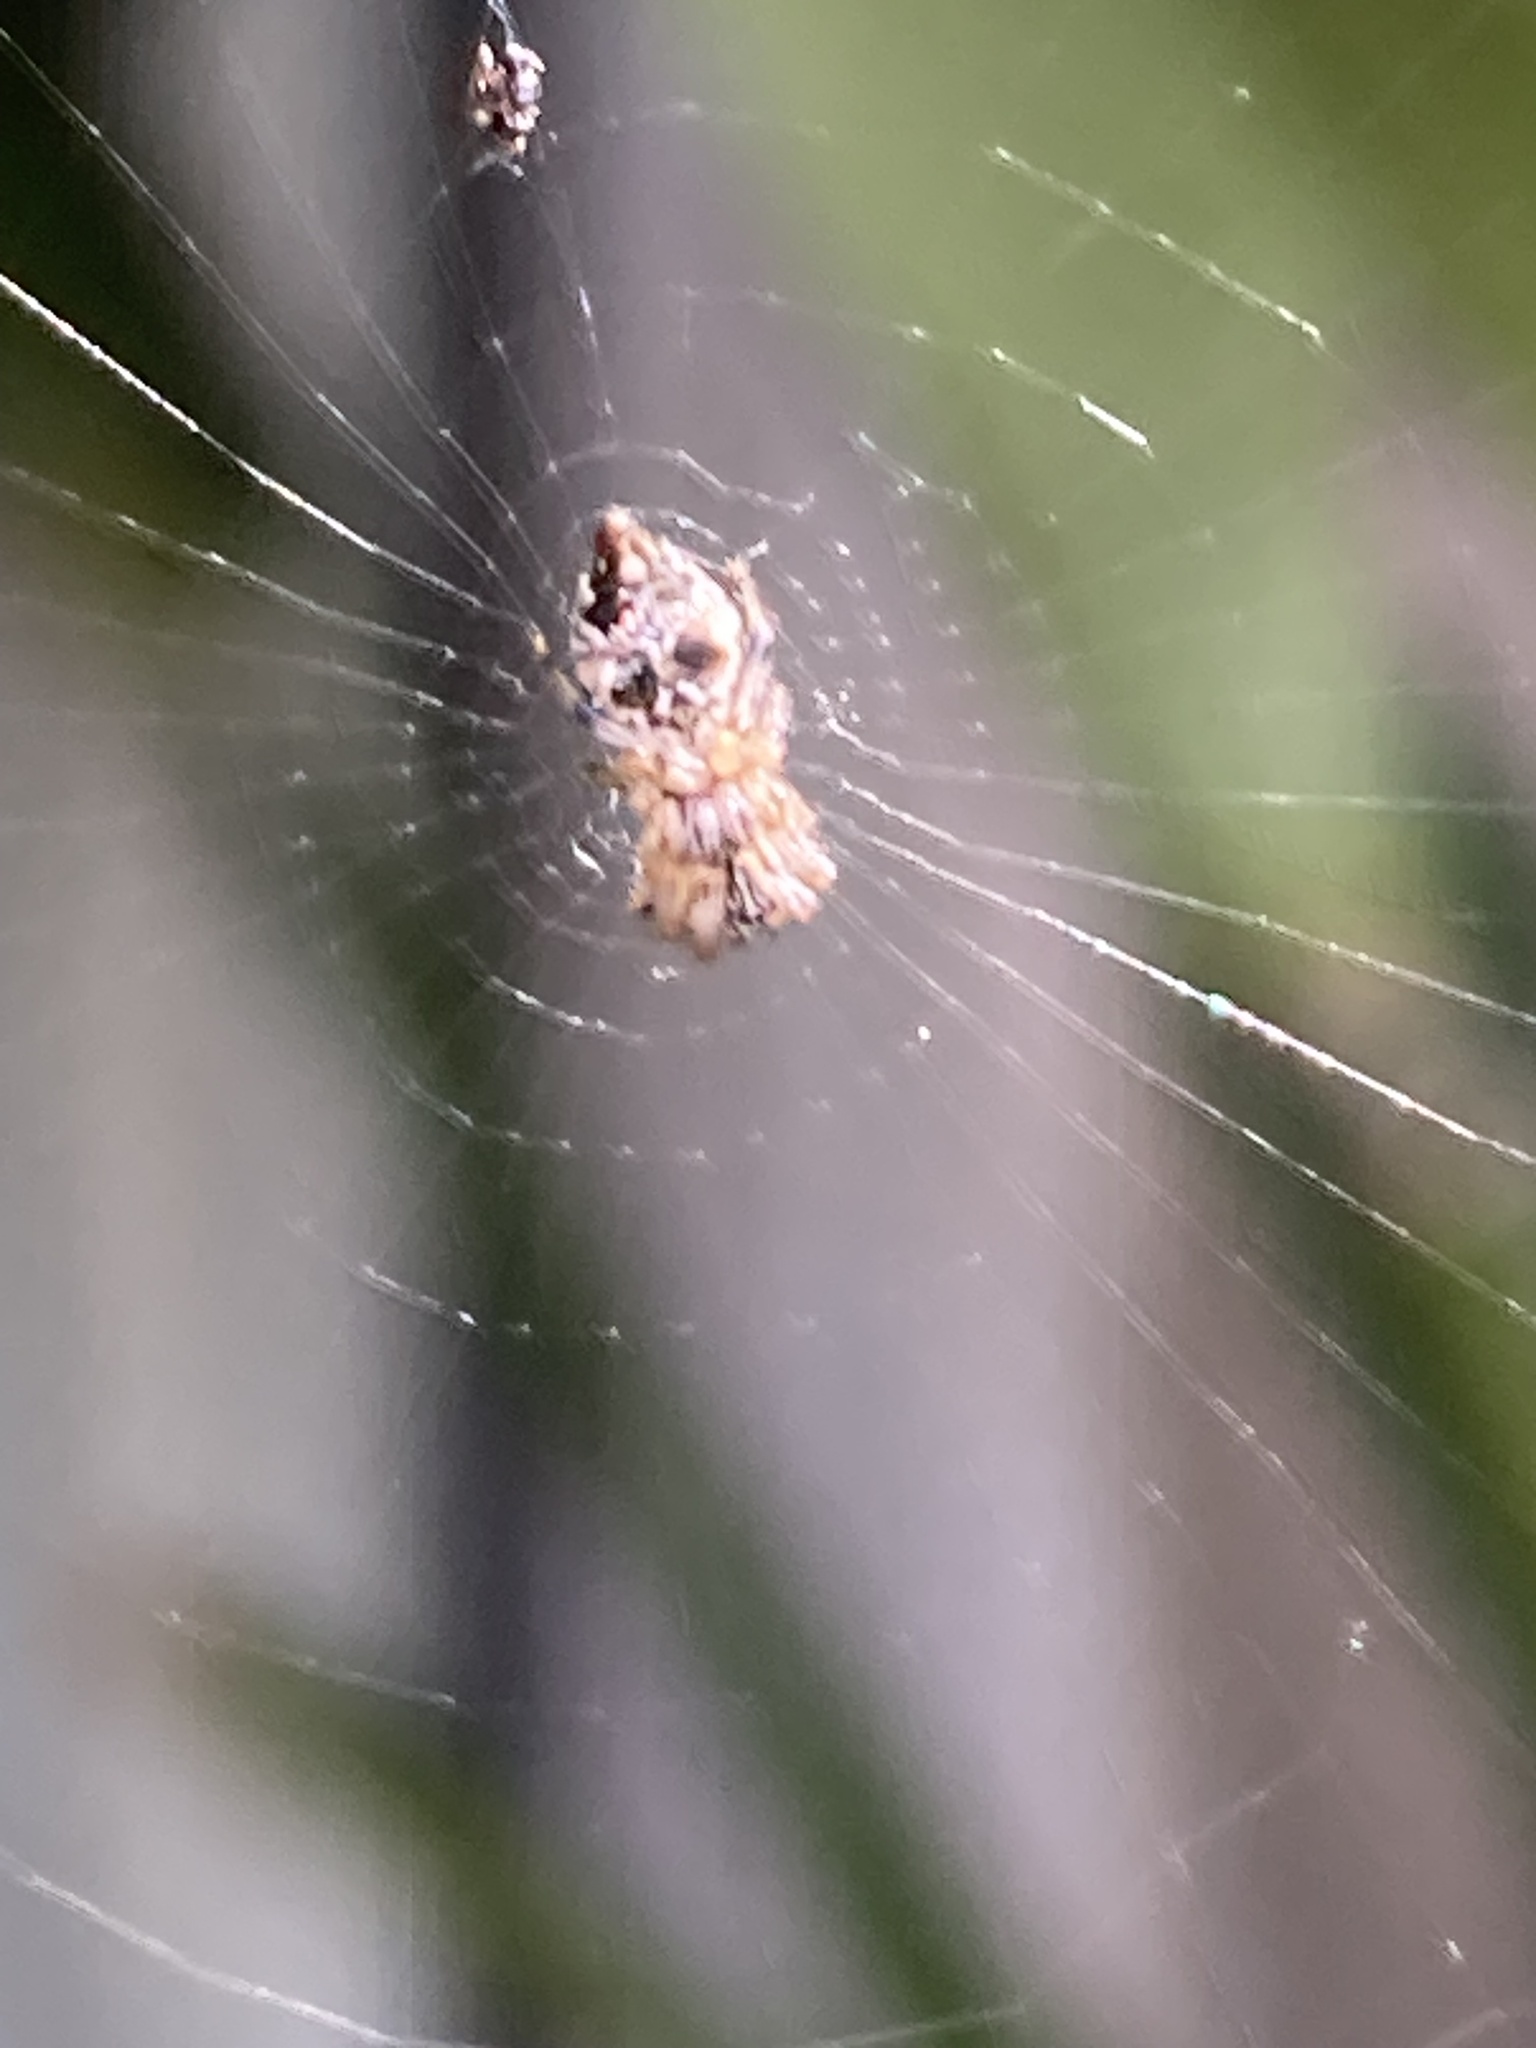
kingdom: Animalia
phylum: Arthropoda
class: Arachnida
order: Araneae
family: Araneidae
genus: Cyclosa
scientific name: Cyclosa turbinata
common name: Orb weavers
